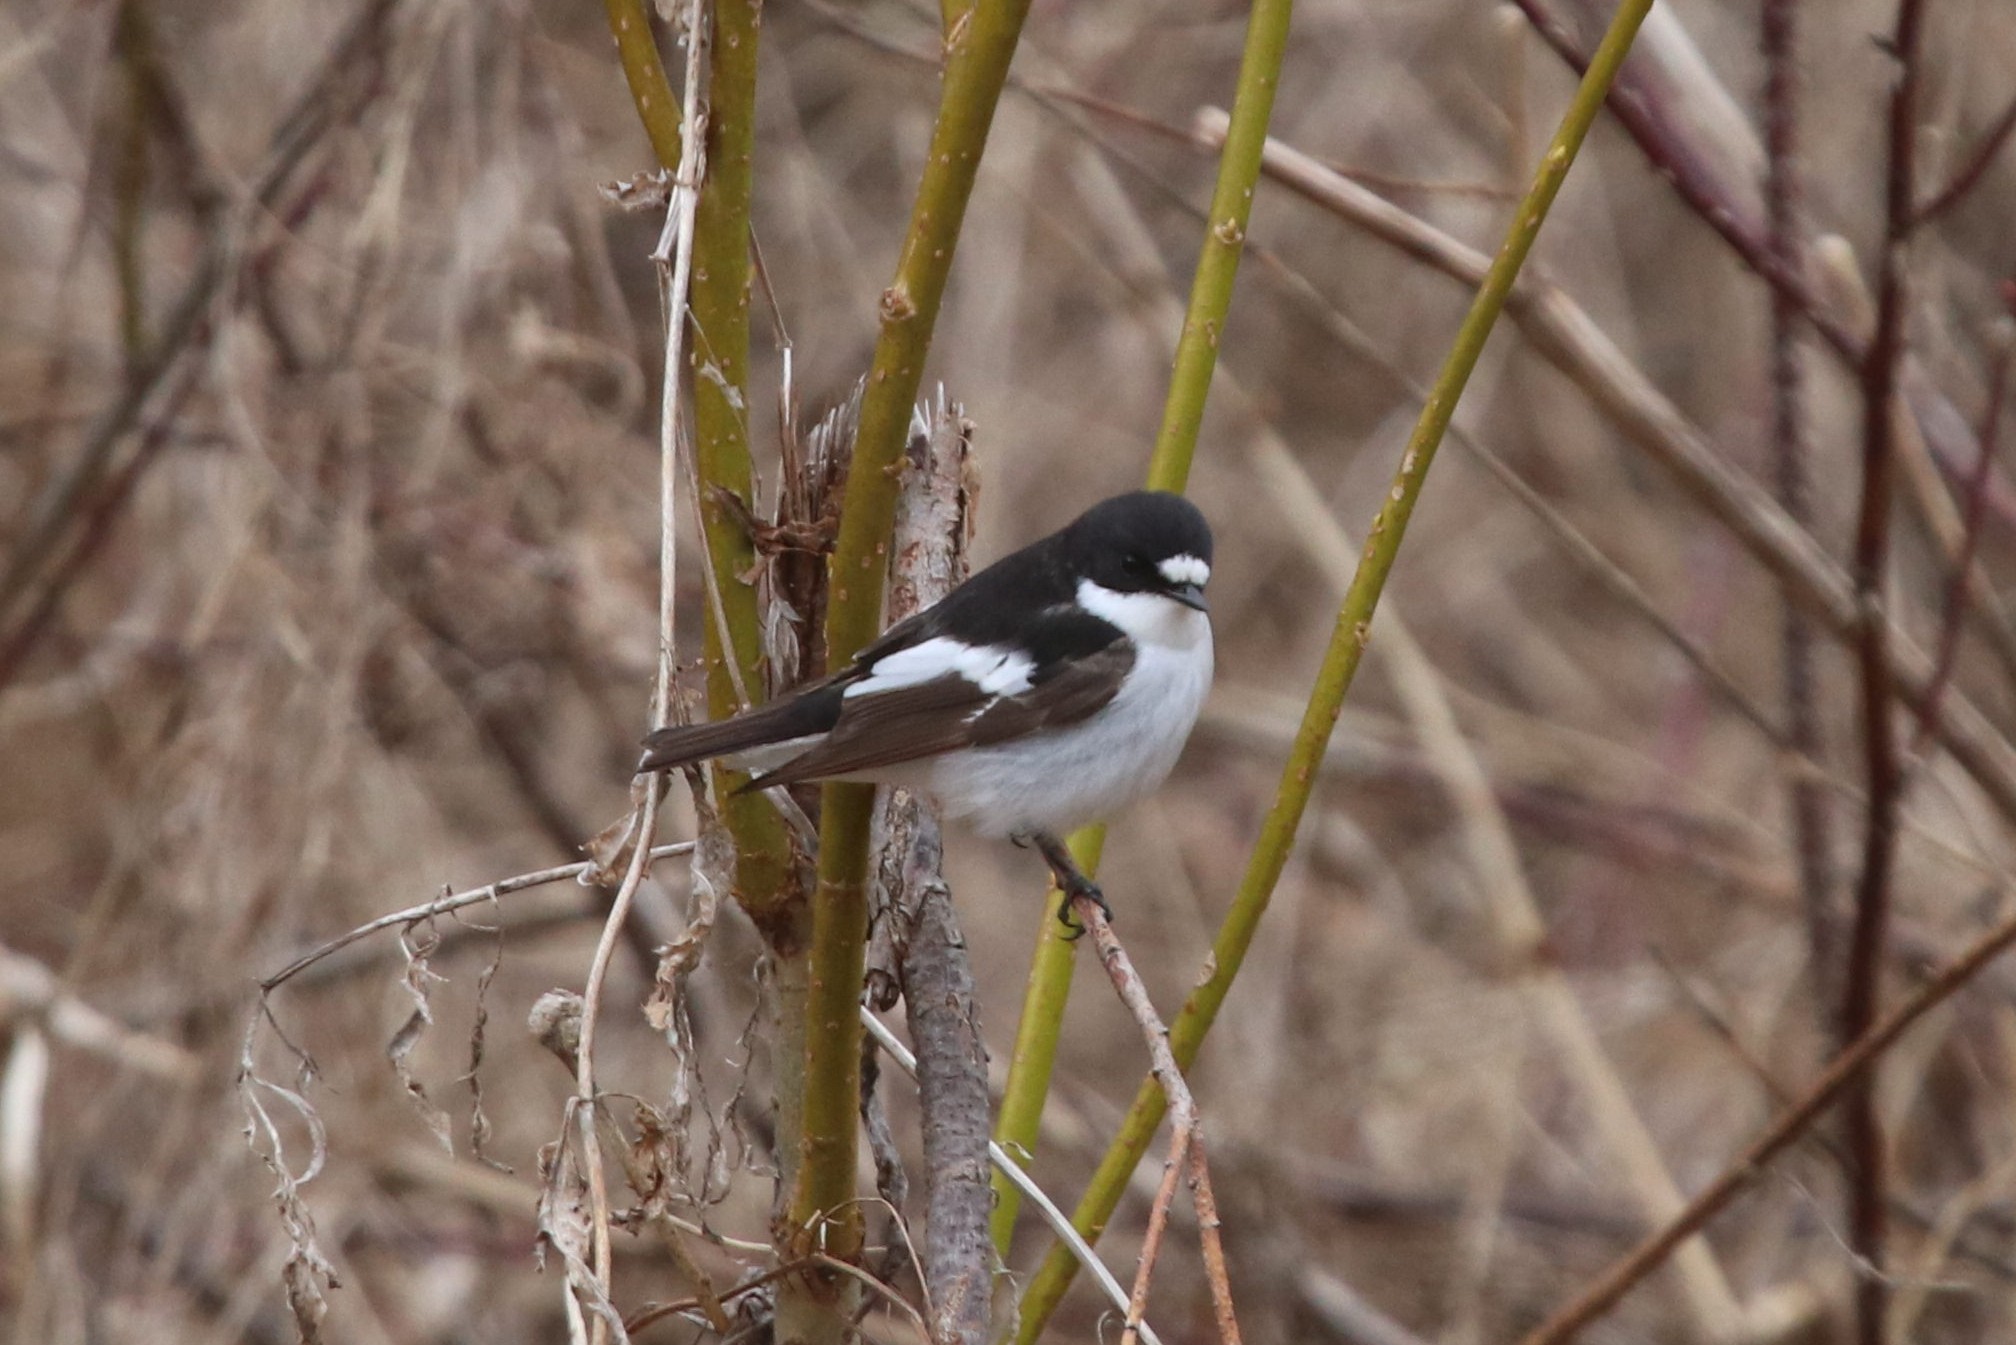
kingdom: Animalia
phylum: Chordata
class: Aves
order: Passeriformes
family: Muscicapidae
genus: Ficedula
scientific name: Ficedula hypoleuca
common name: European pied flycatcher
